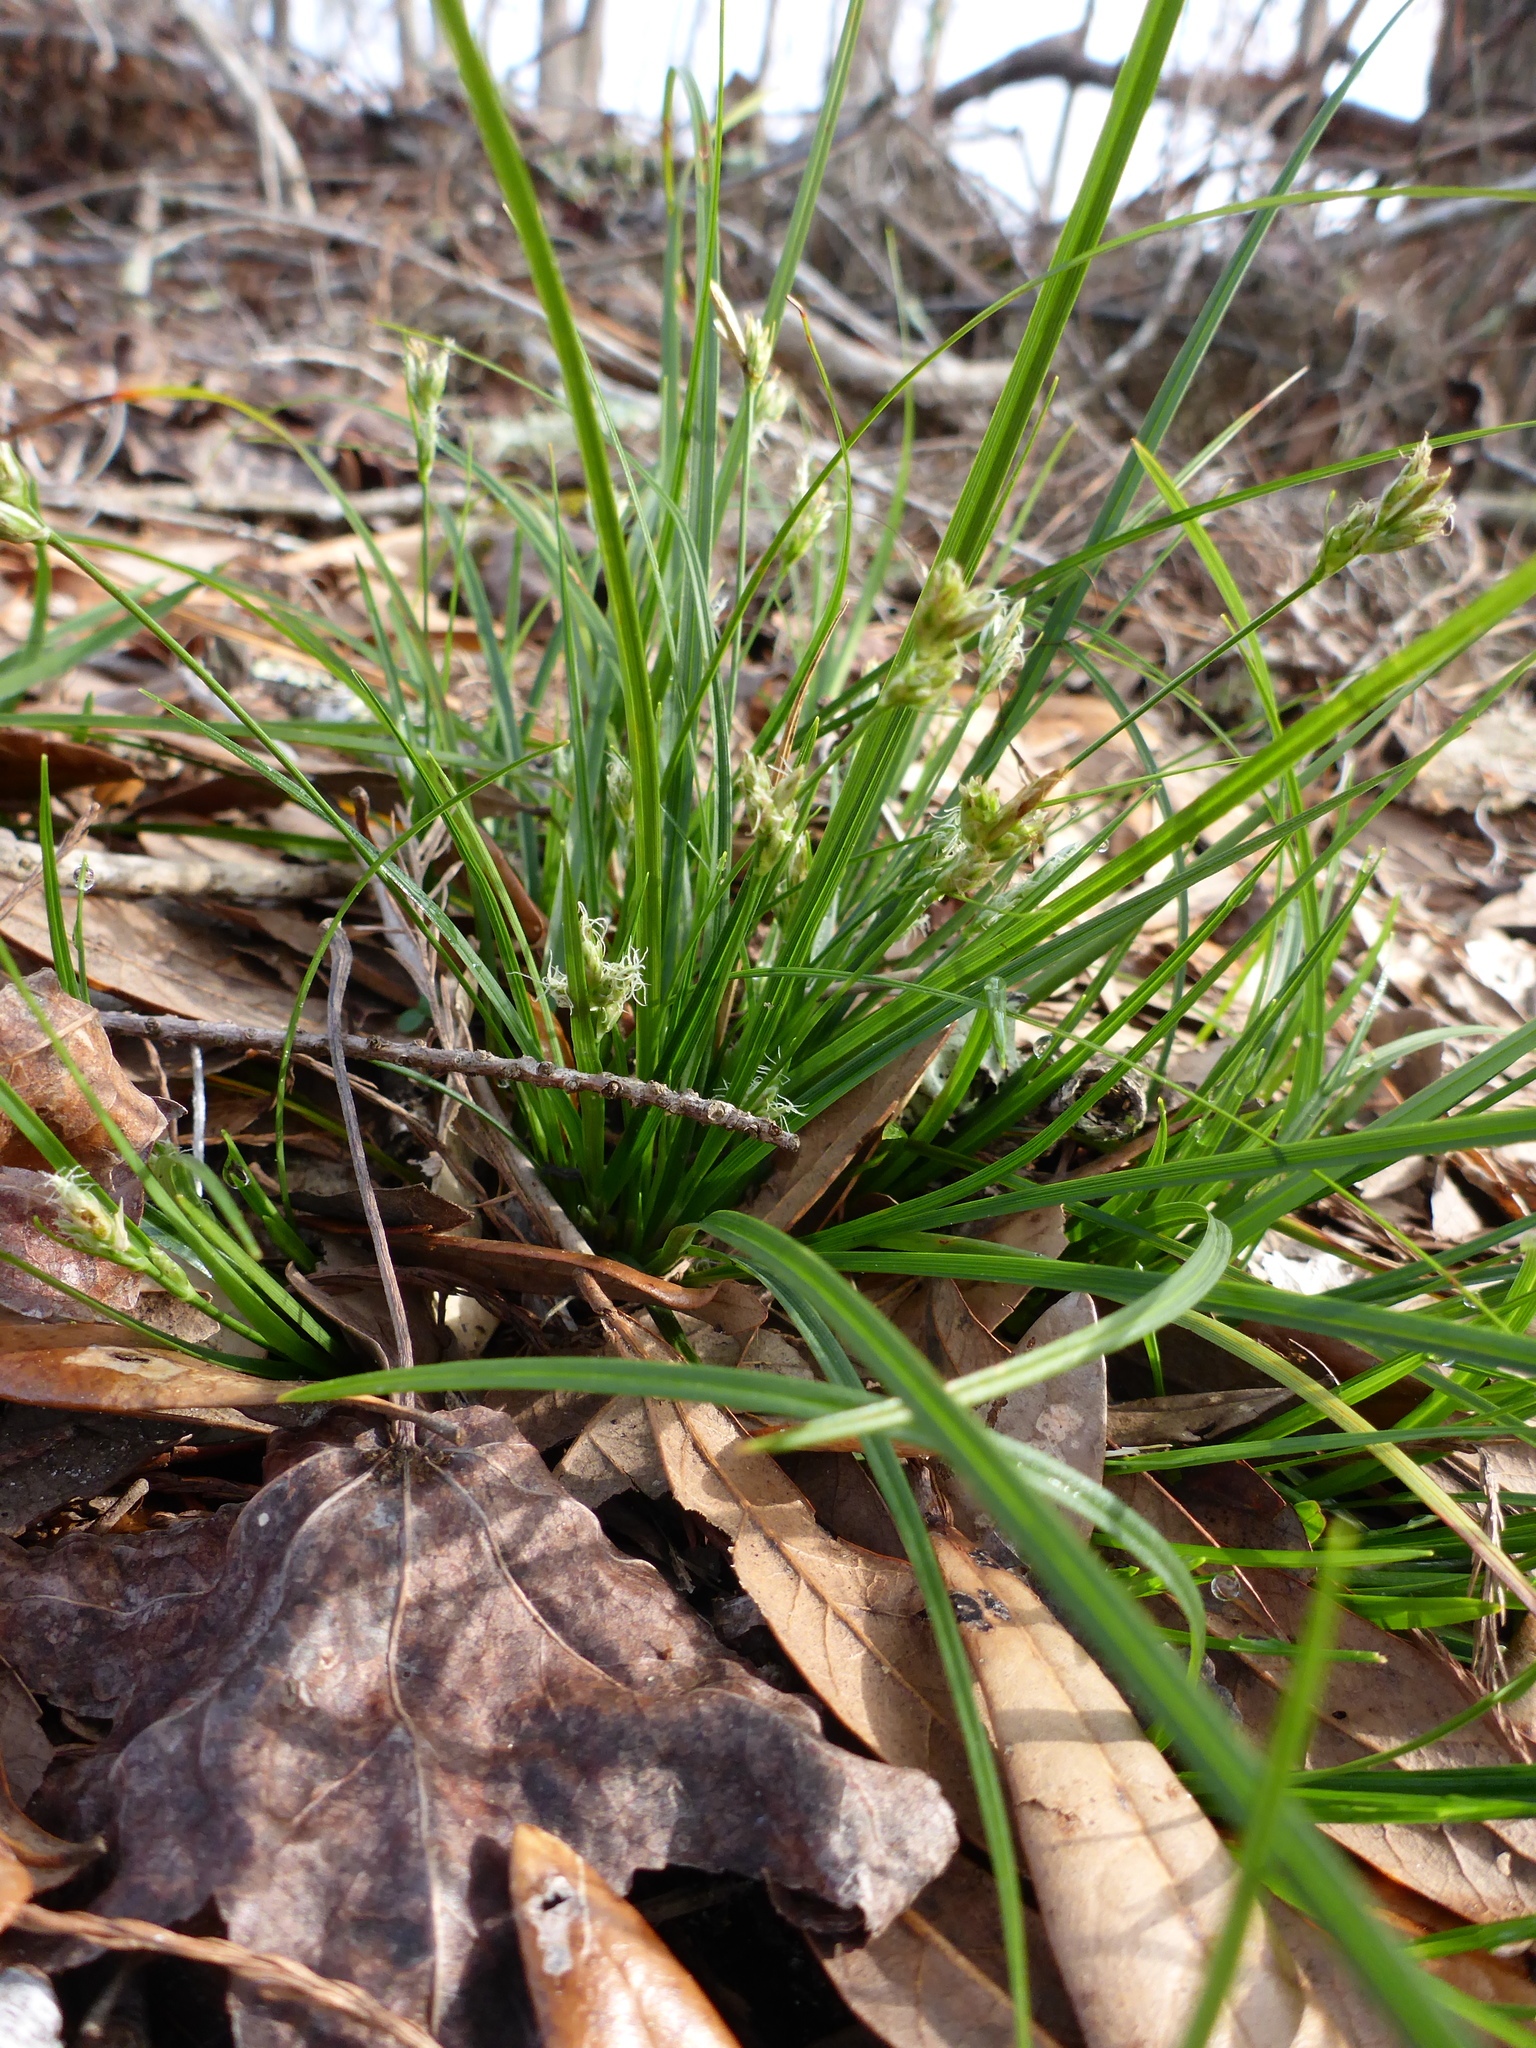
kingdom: Plantae
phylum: Tracheophyta
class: Liliopsida
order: Poales
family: Cyperaceae
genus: Carex
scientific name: Carex floridana
